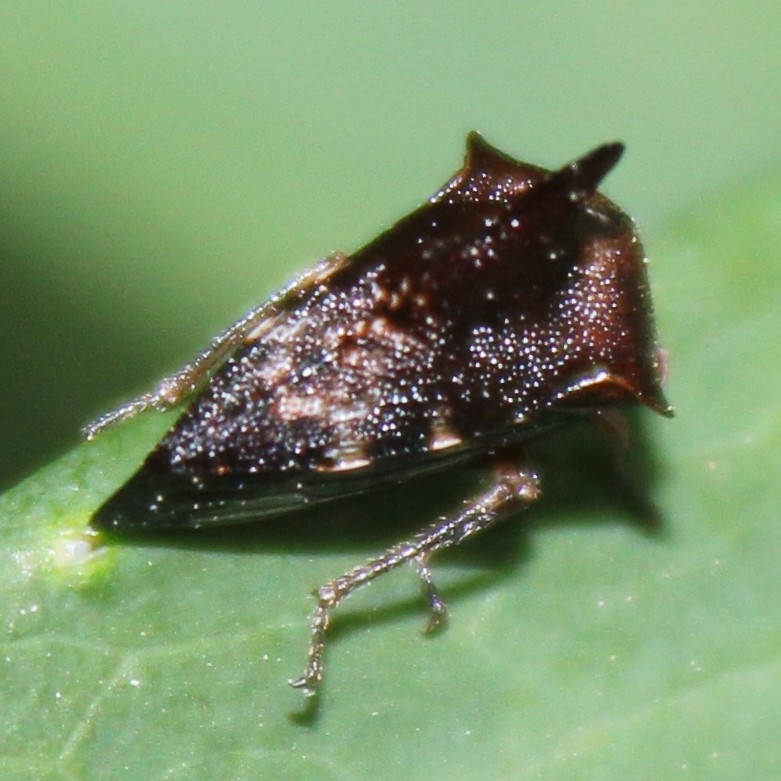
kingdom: Animalia
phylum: Arthropoda
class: Insecta
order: Hemiptera
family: Membracidae
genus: Heliria
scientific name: Heliria scalaris
